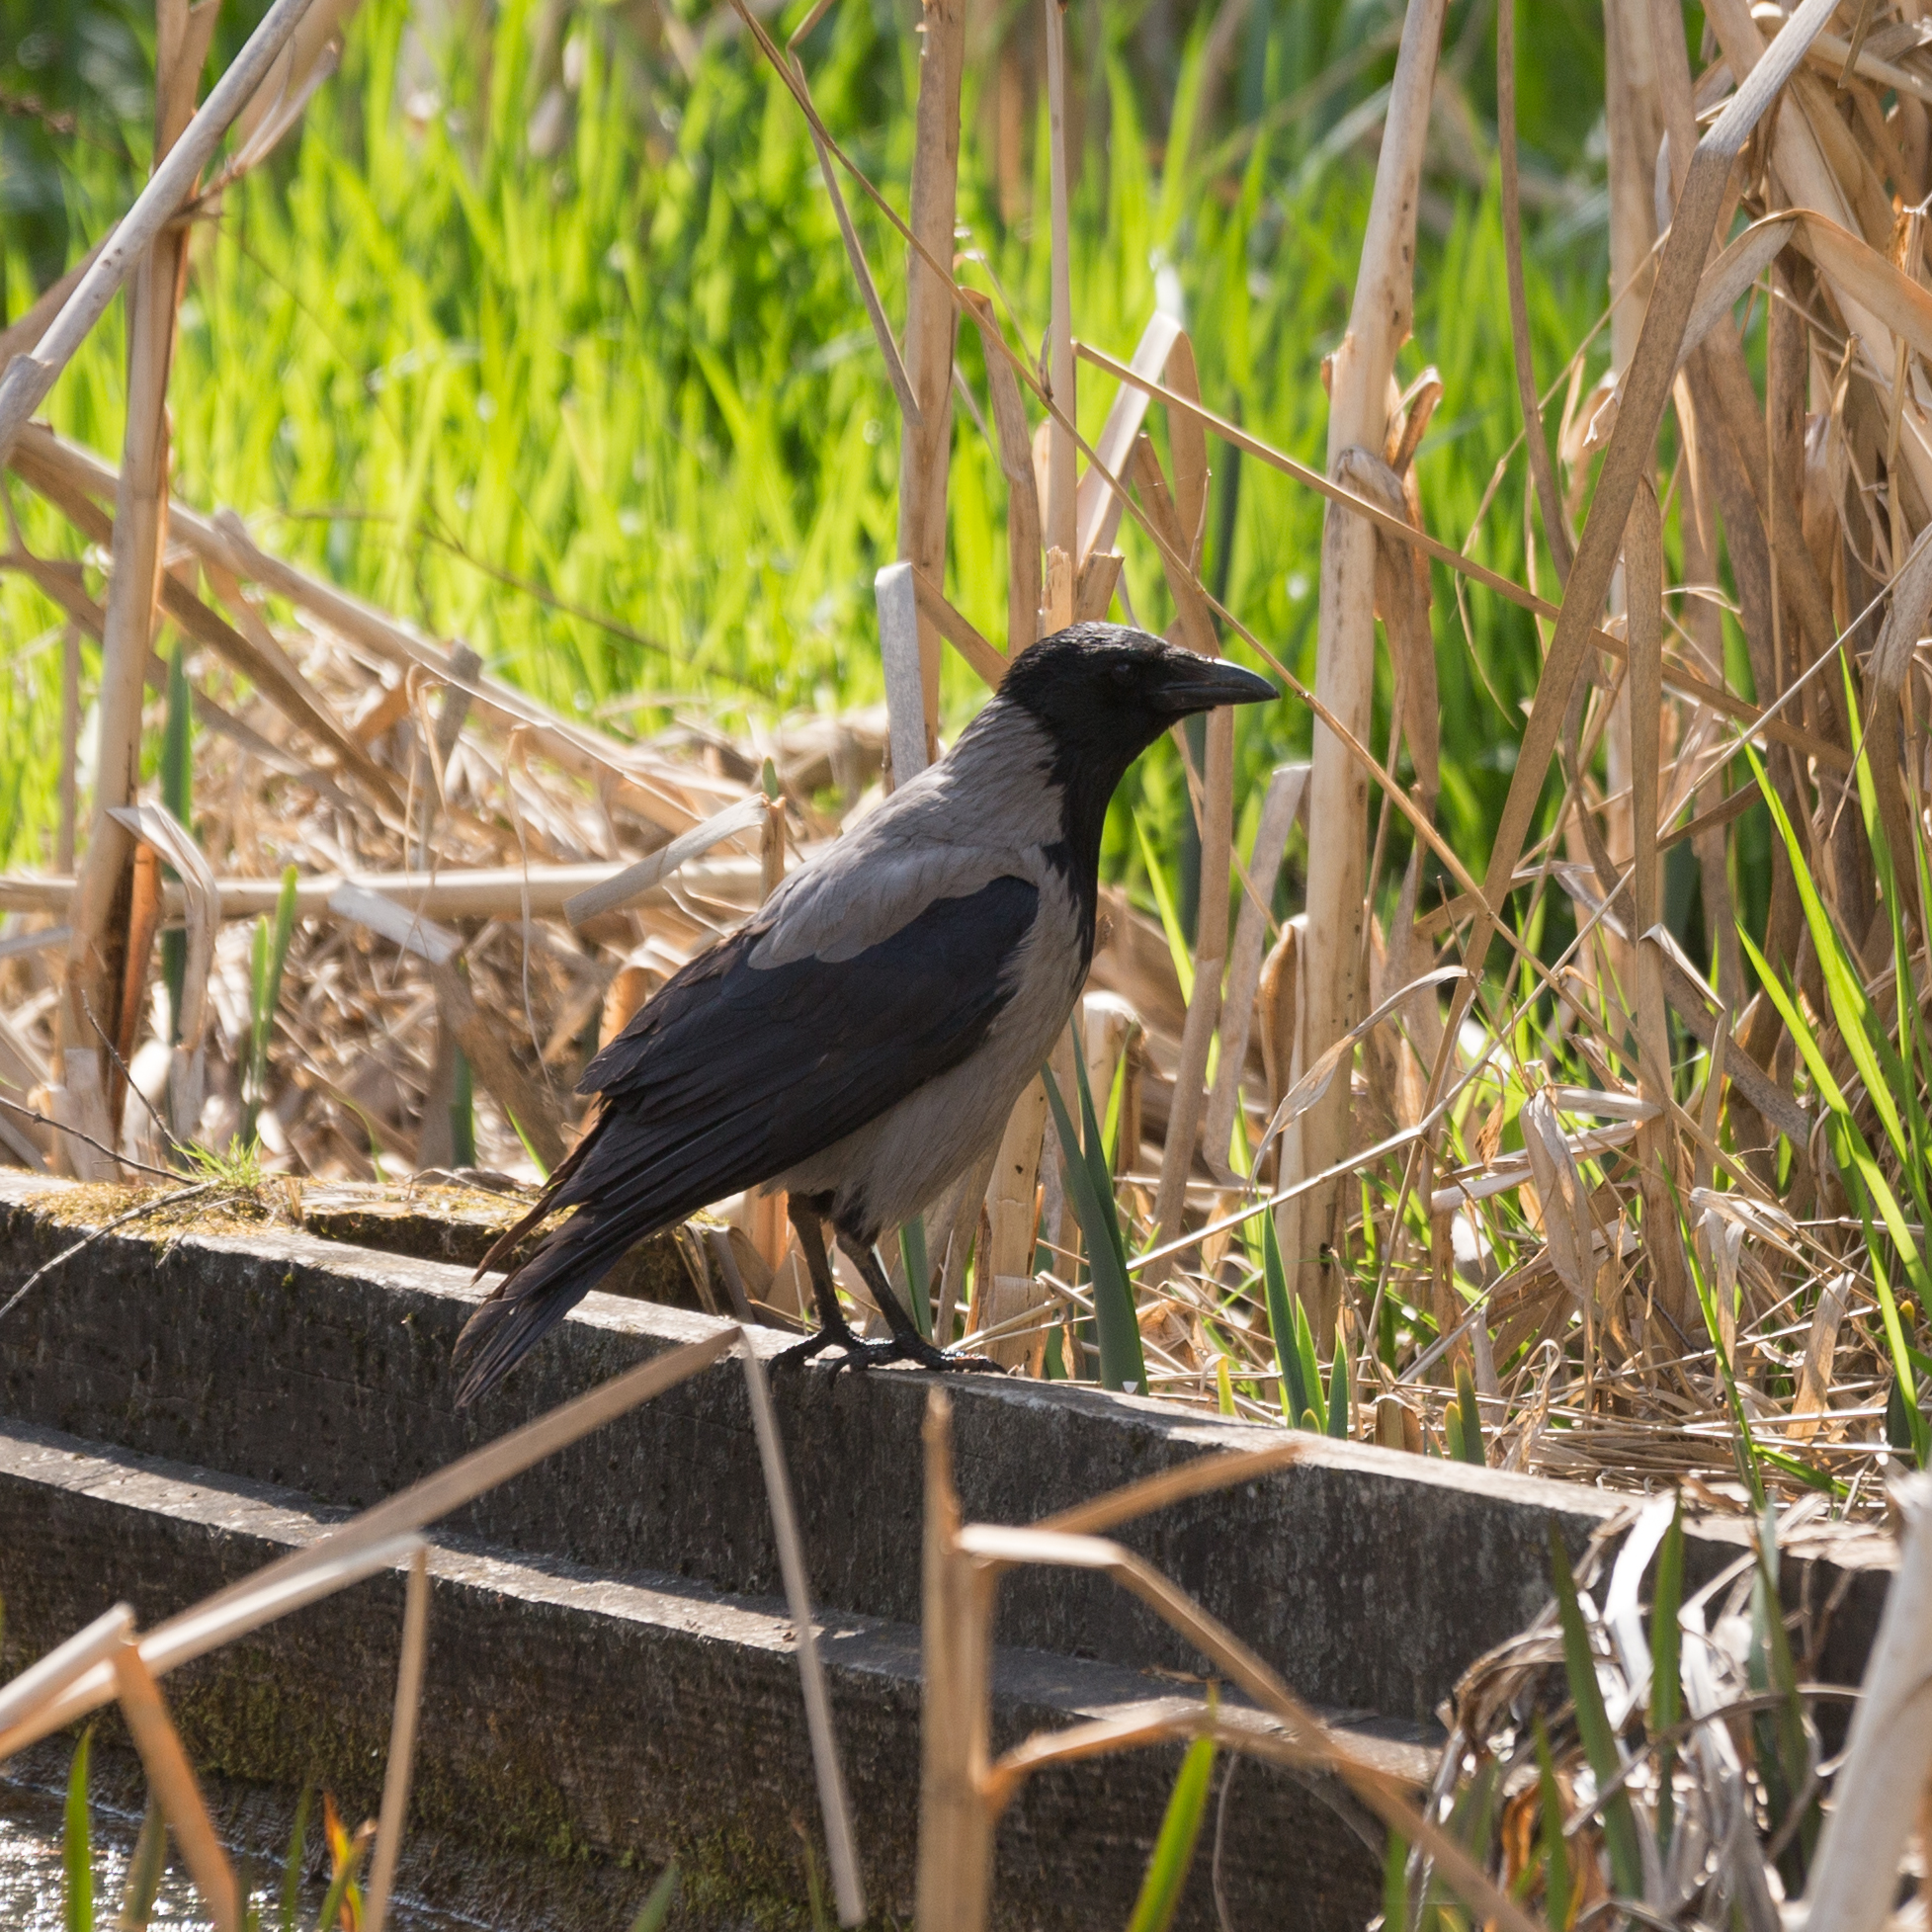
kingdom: Animalia
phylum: Chordata
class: Aves
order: Passeriformes
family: Corvidae
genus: Corvus
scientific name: Corvus cornix
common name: Hooded crow
